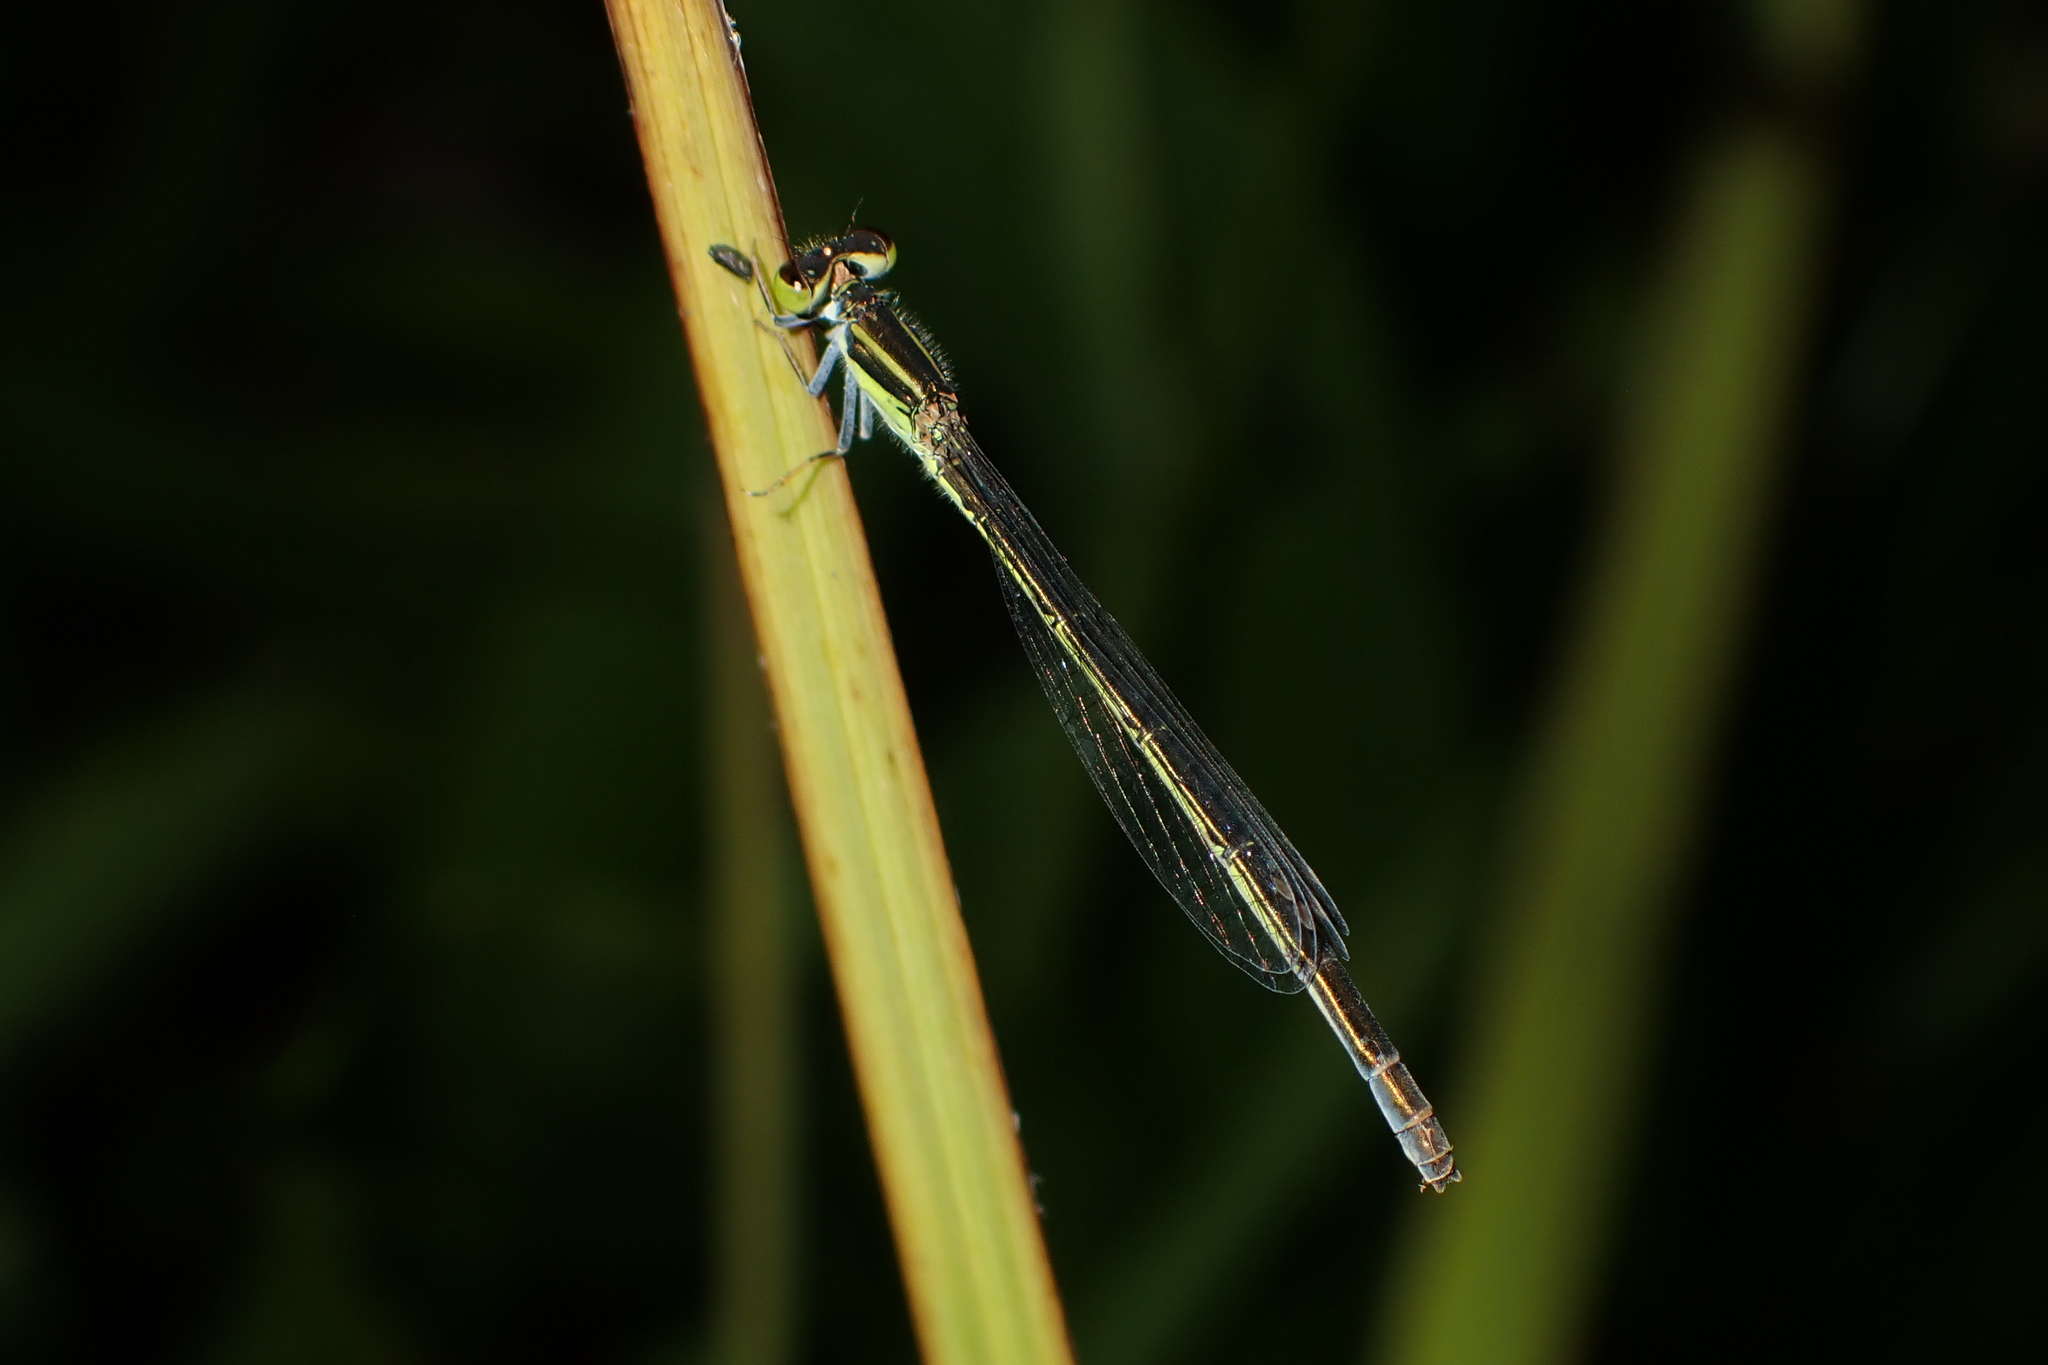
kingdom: Animalia
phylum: Arthropoda
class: Insecta
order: Odonata
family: Coenagrionidae
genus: Ischnura
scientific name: Ischnura aurora
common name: Gossamer damselfly
